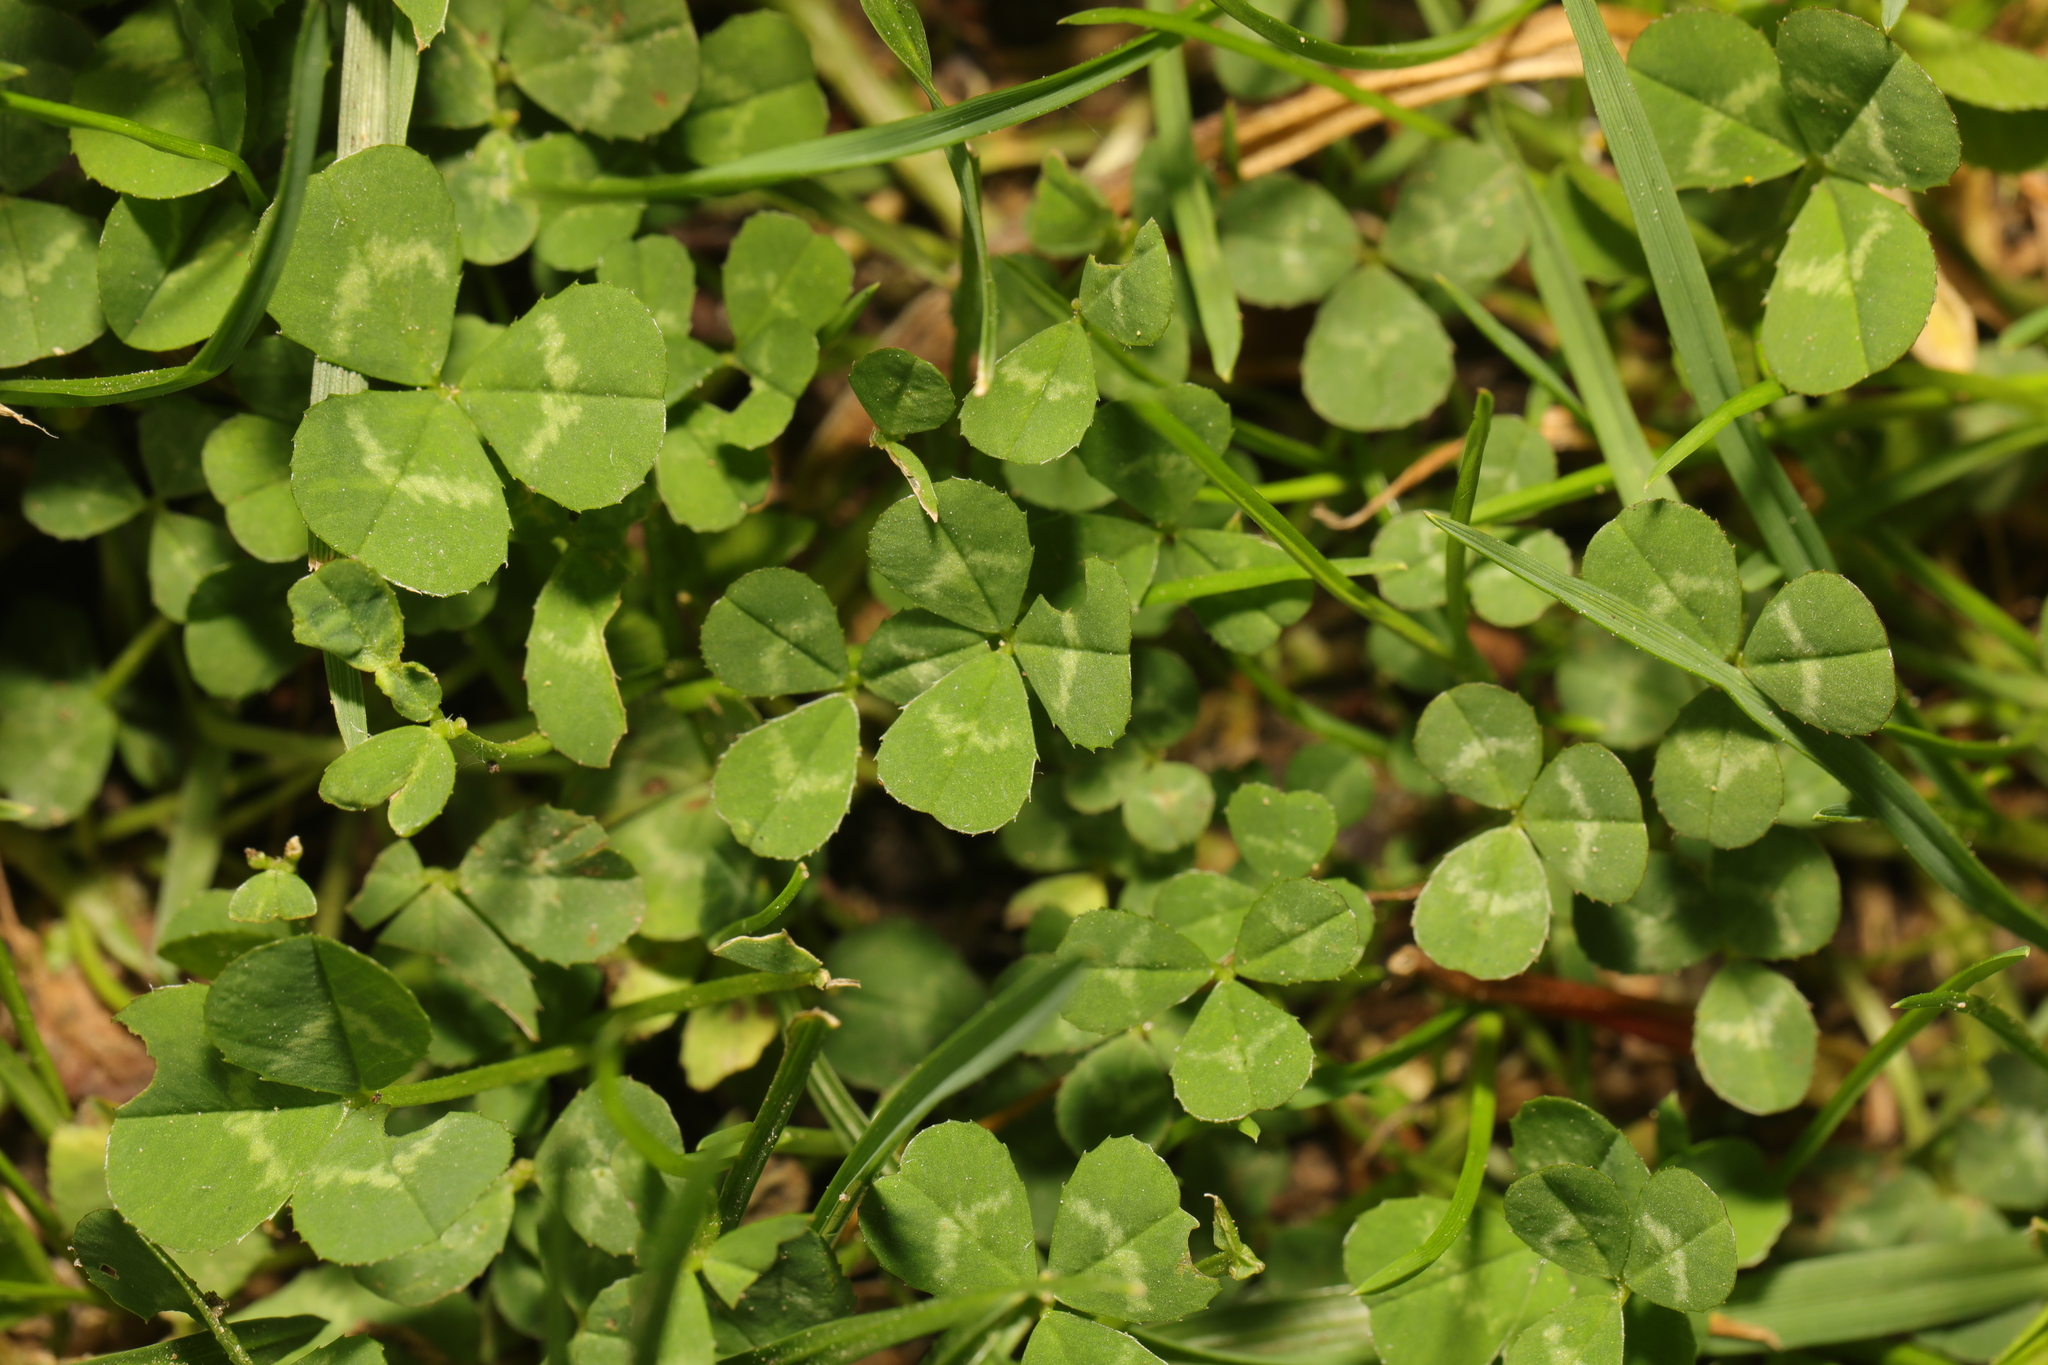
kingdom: Plantae
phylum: Tracheophyta
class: Magnoliopsida
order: Fabales
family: Fabaceae
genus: Trifolium
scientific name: Trifolium repens
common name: White clover
